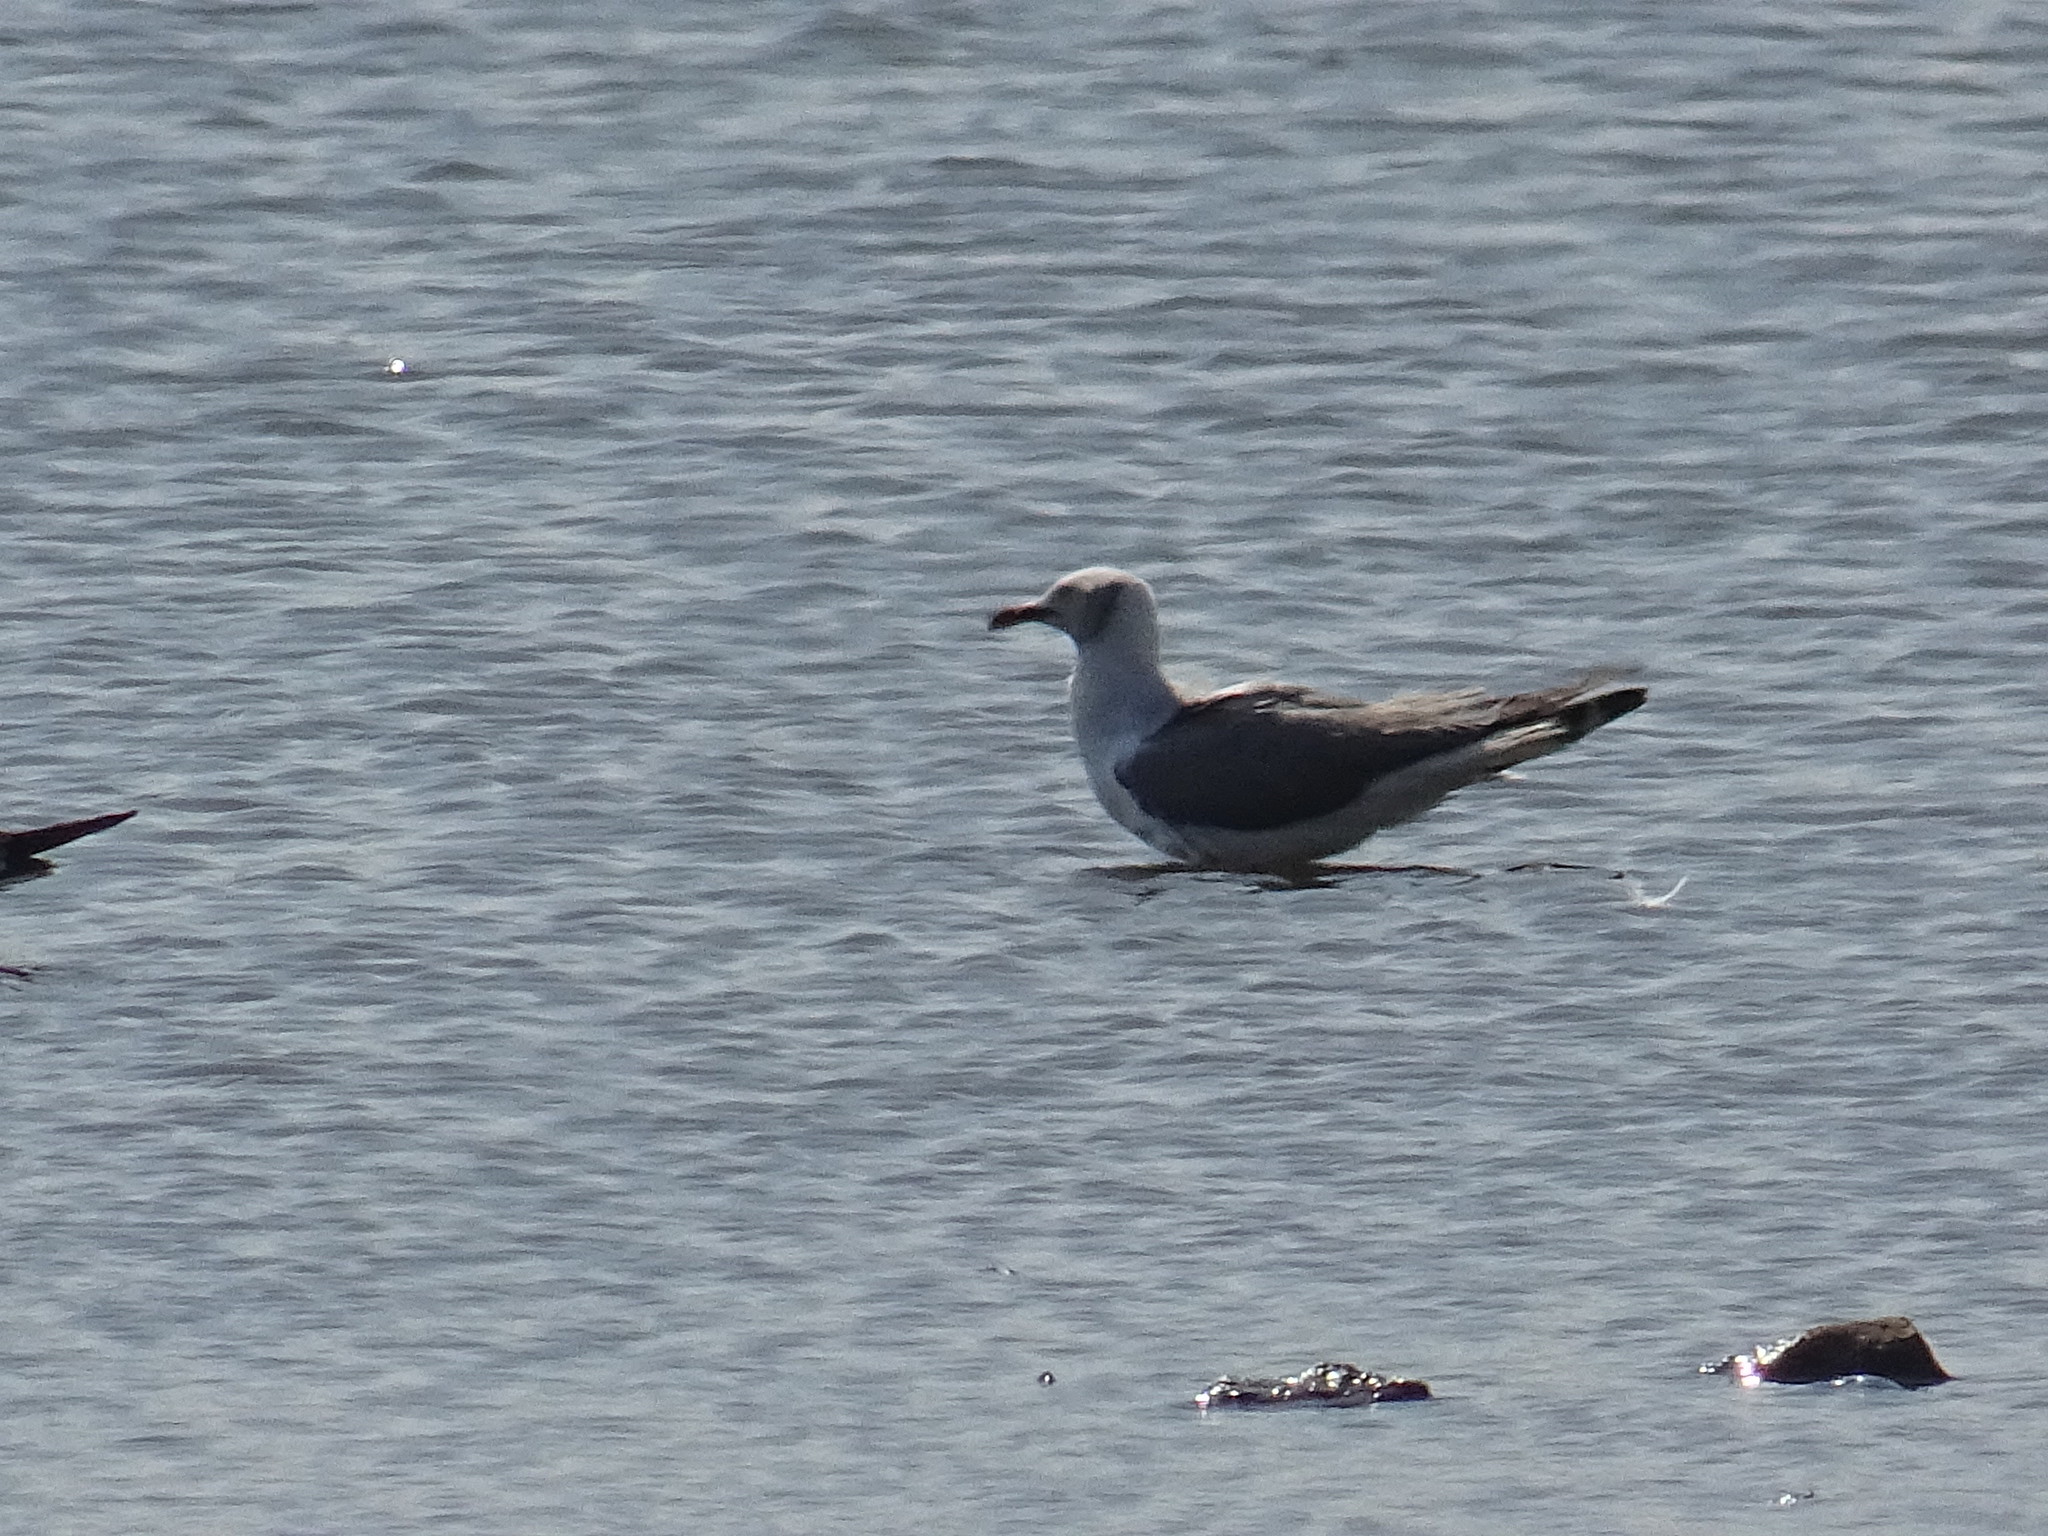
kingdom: Animalia
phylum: Chordata
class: Aves
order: Charadriiformes
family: Laridae
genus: Chroicocephalus
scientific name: Chroicocephalus cirrocephalus
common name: Grey-headed gull
